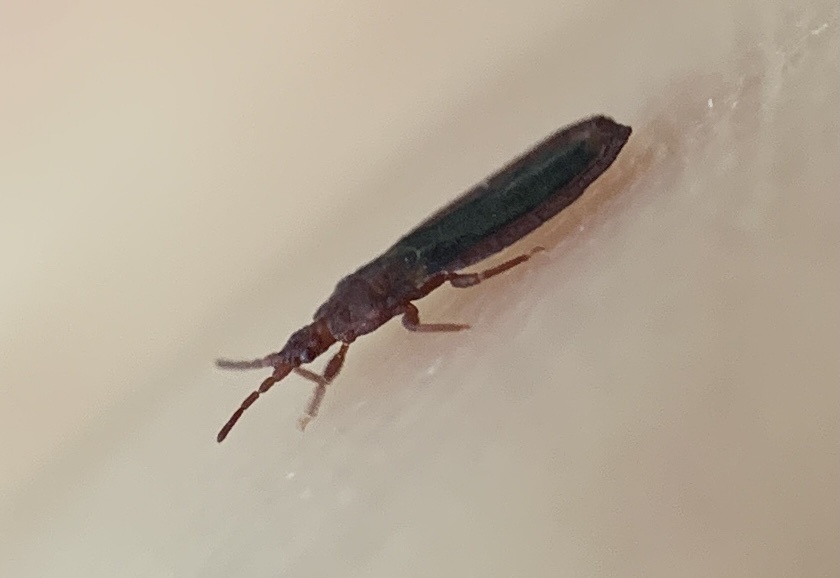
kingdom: Animalia
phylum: Arthropoda
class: Insecta
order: Hemiptera
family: Aradidae
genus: Aneurus
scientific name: Aneurus simplex
